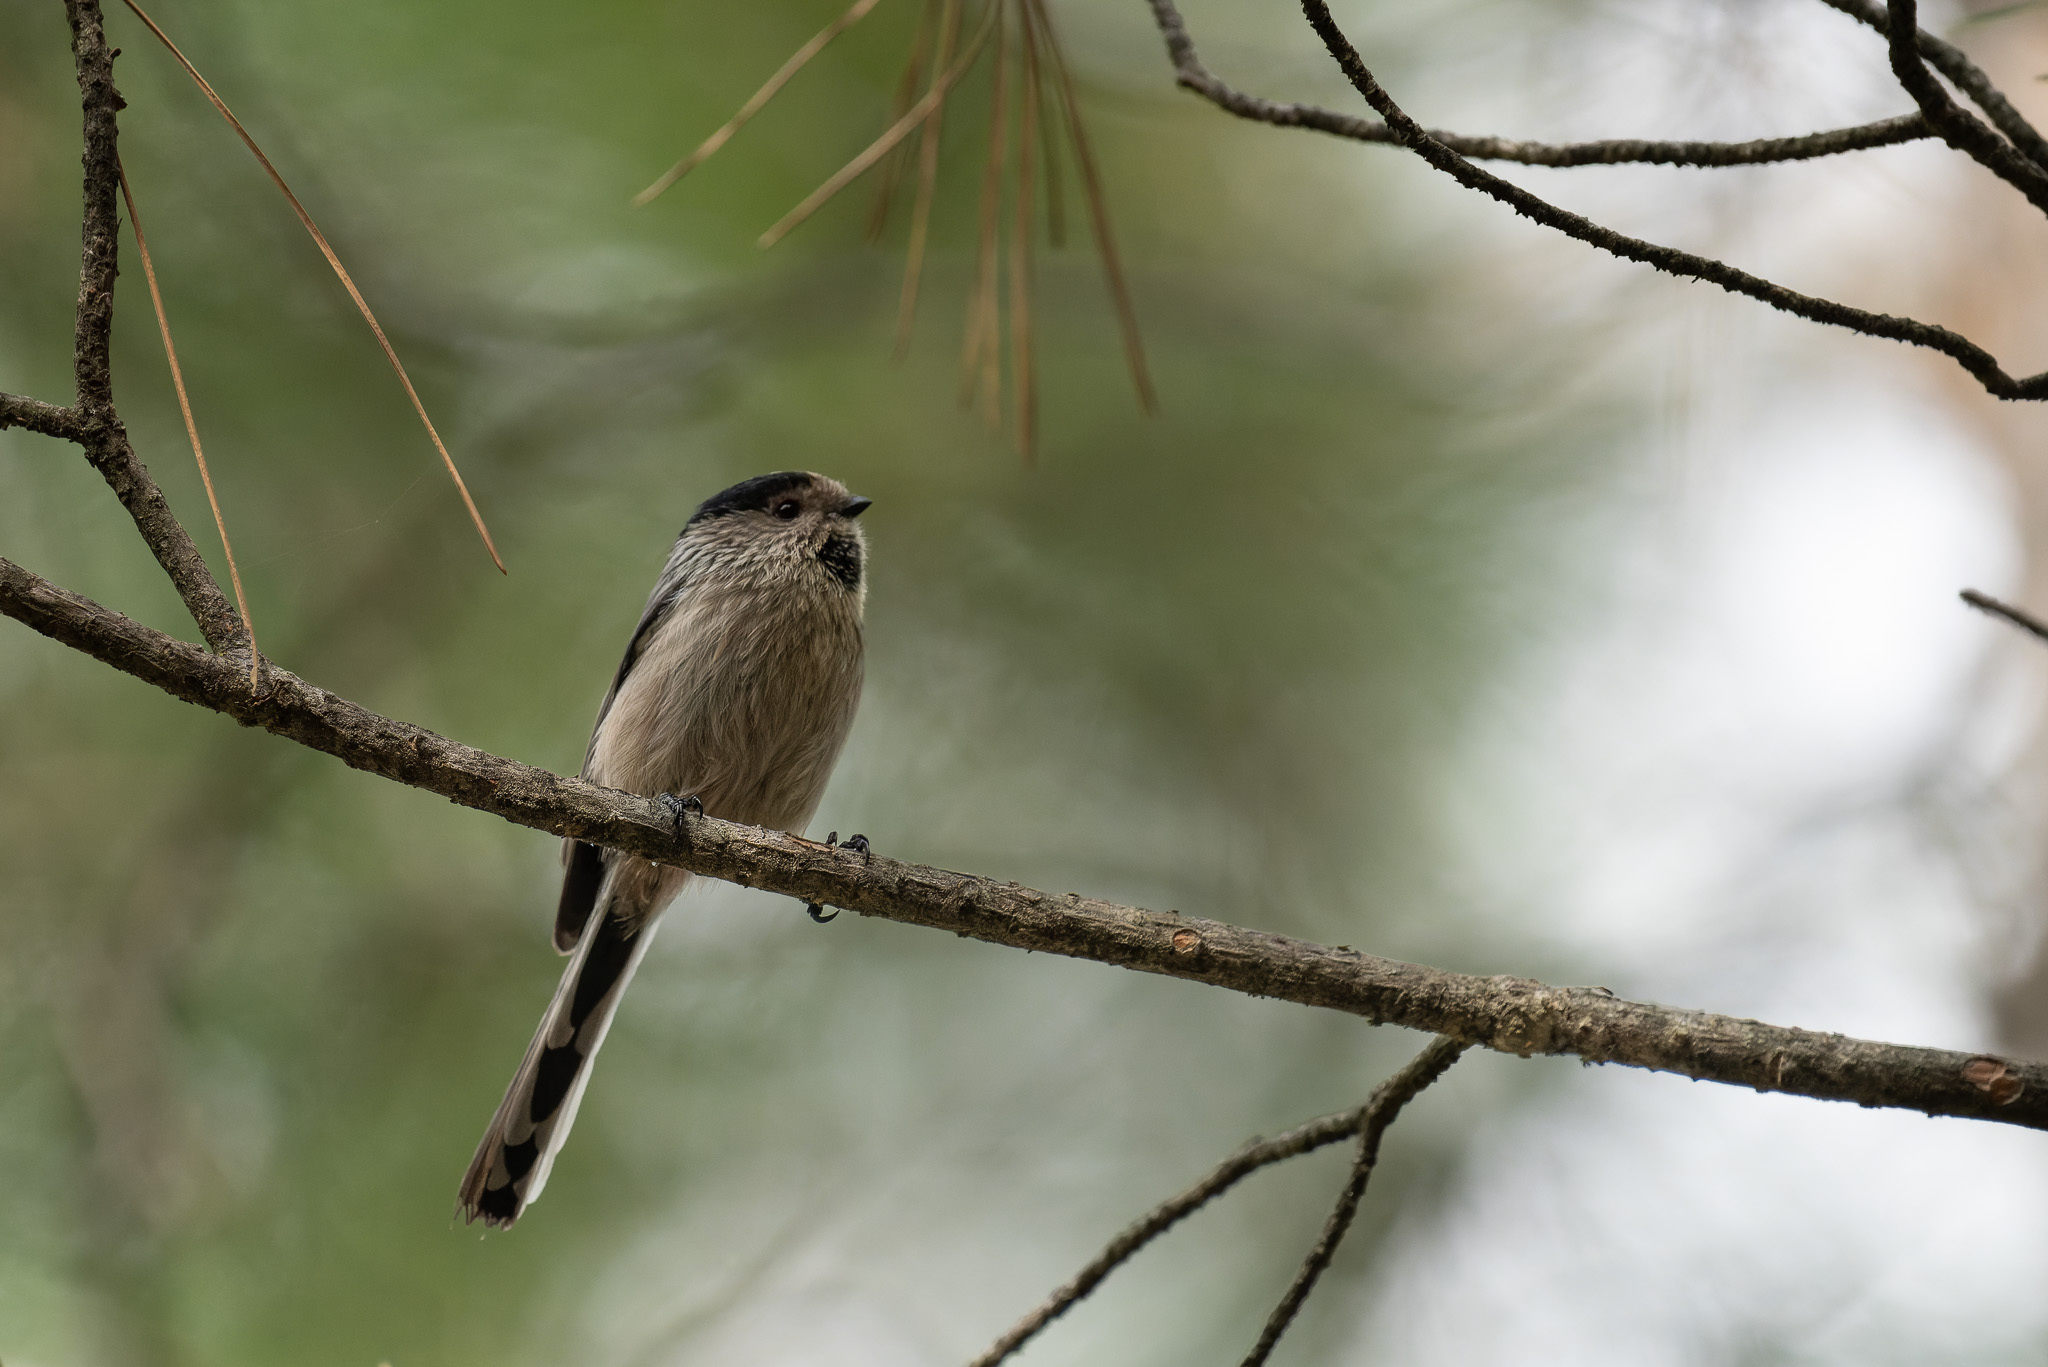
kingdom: Animalia
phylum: Chordata
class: Aves
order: Passeriformes
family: Aegithalidae
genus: Aegithalos
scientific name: Aegithalos caudatus
